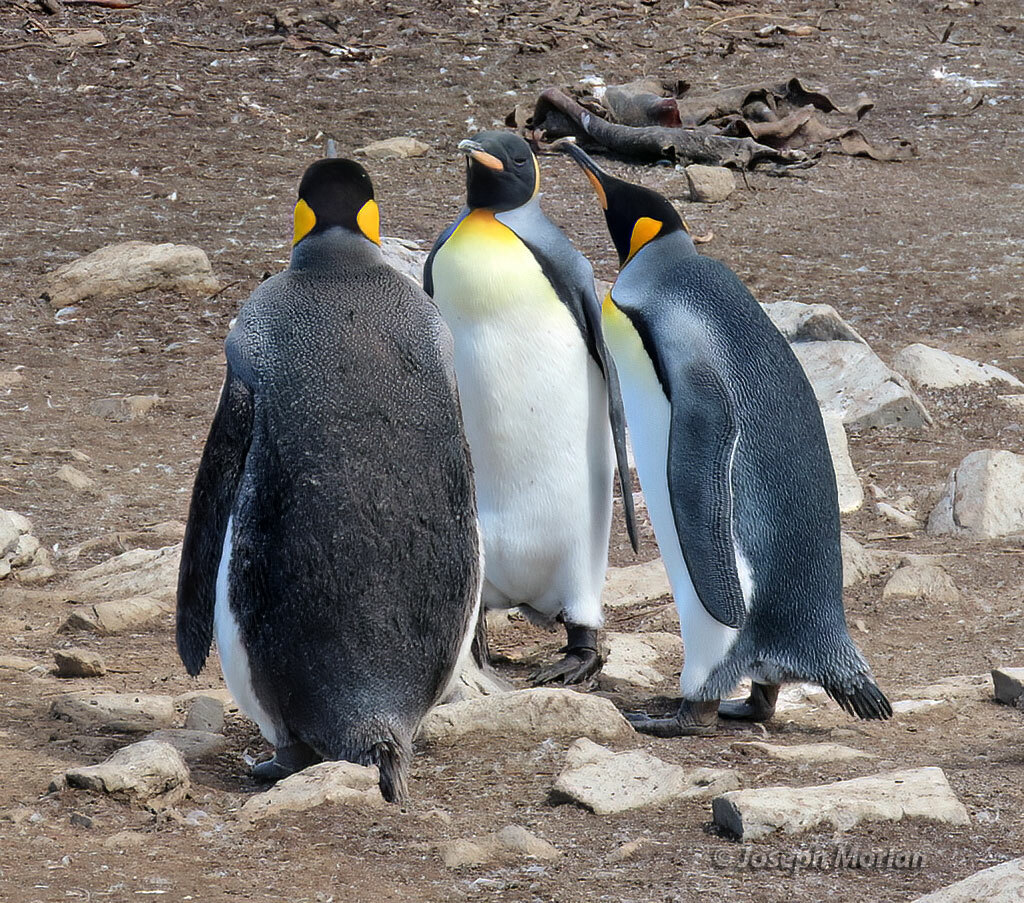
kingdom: Animalia
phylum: Chordata
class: Aves
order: Sphenisciformes
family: Spheniscidae
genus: Aptenodytes
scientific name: Aptenodytes patagonicus
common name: King penguin
